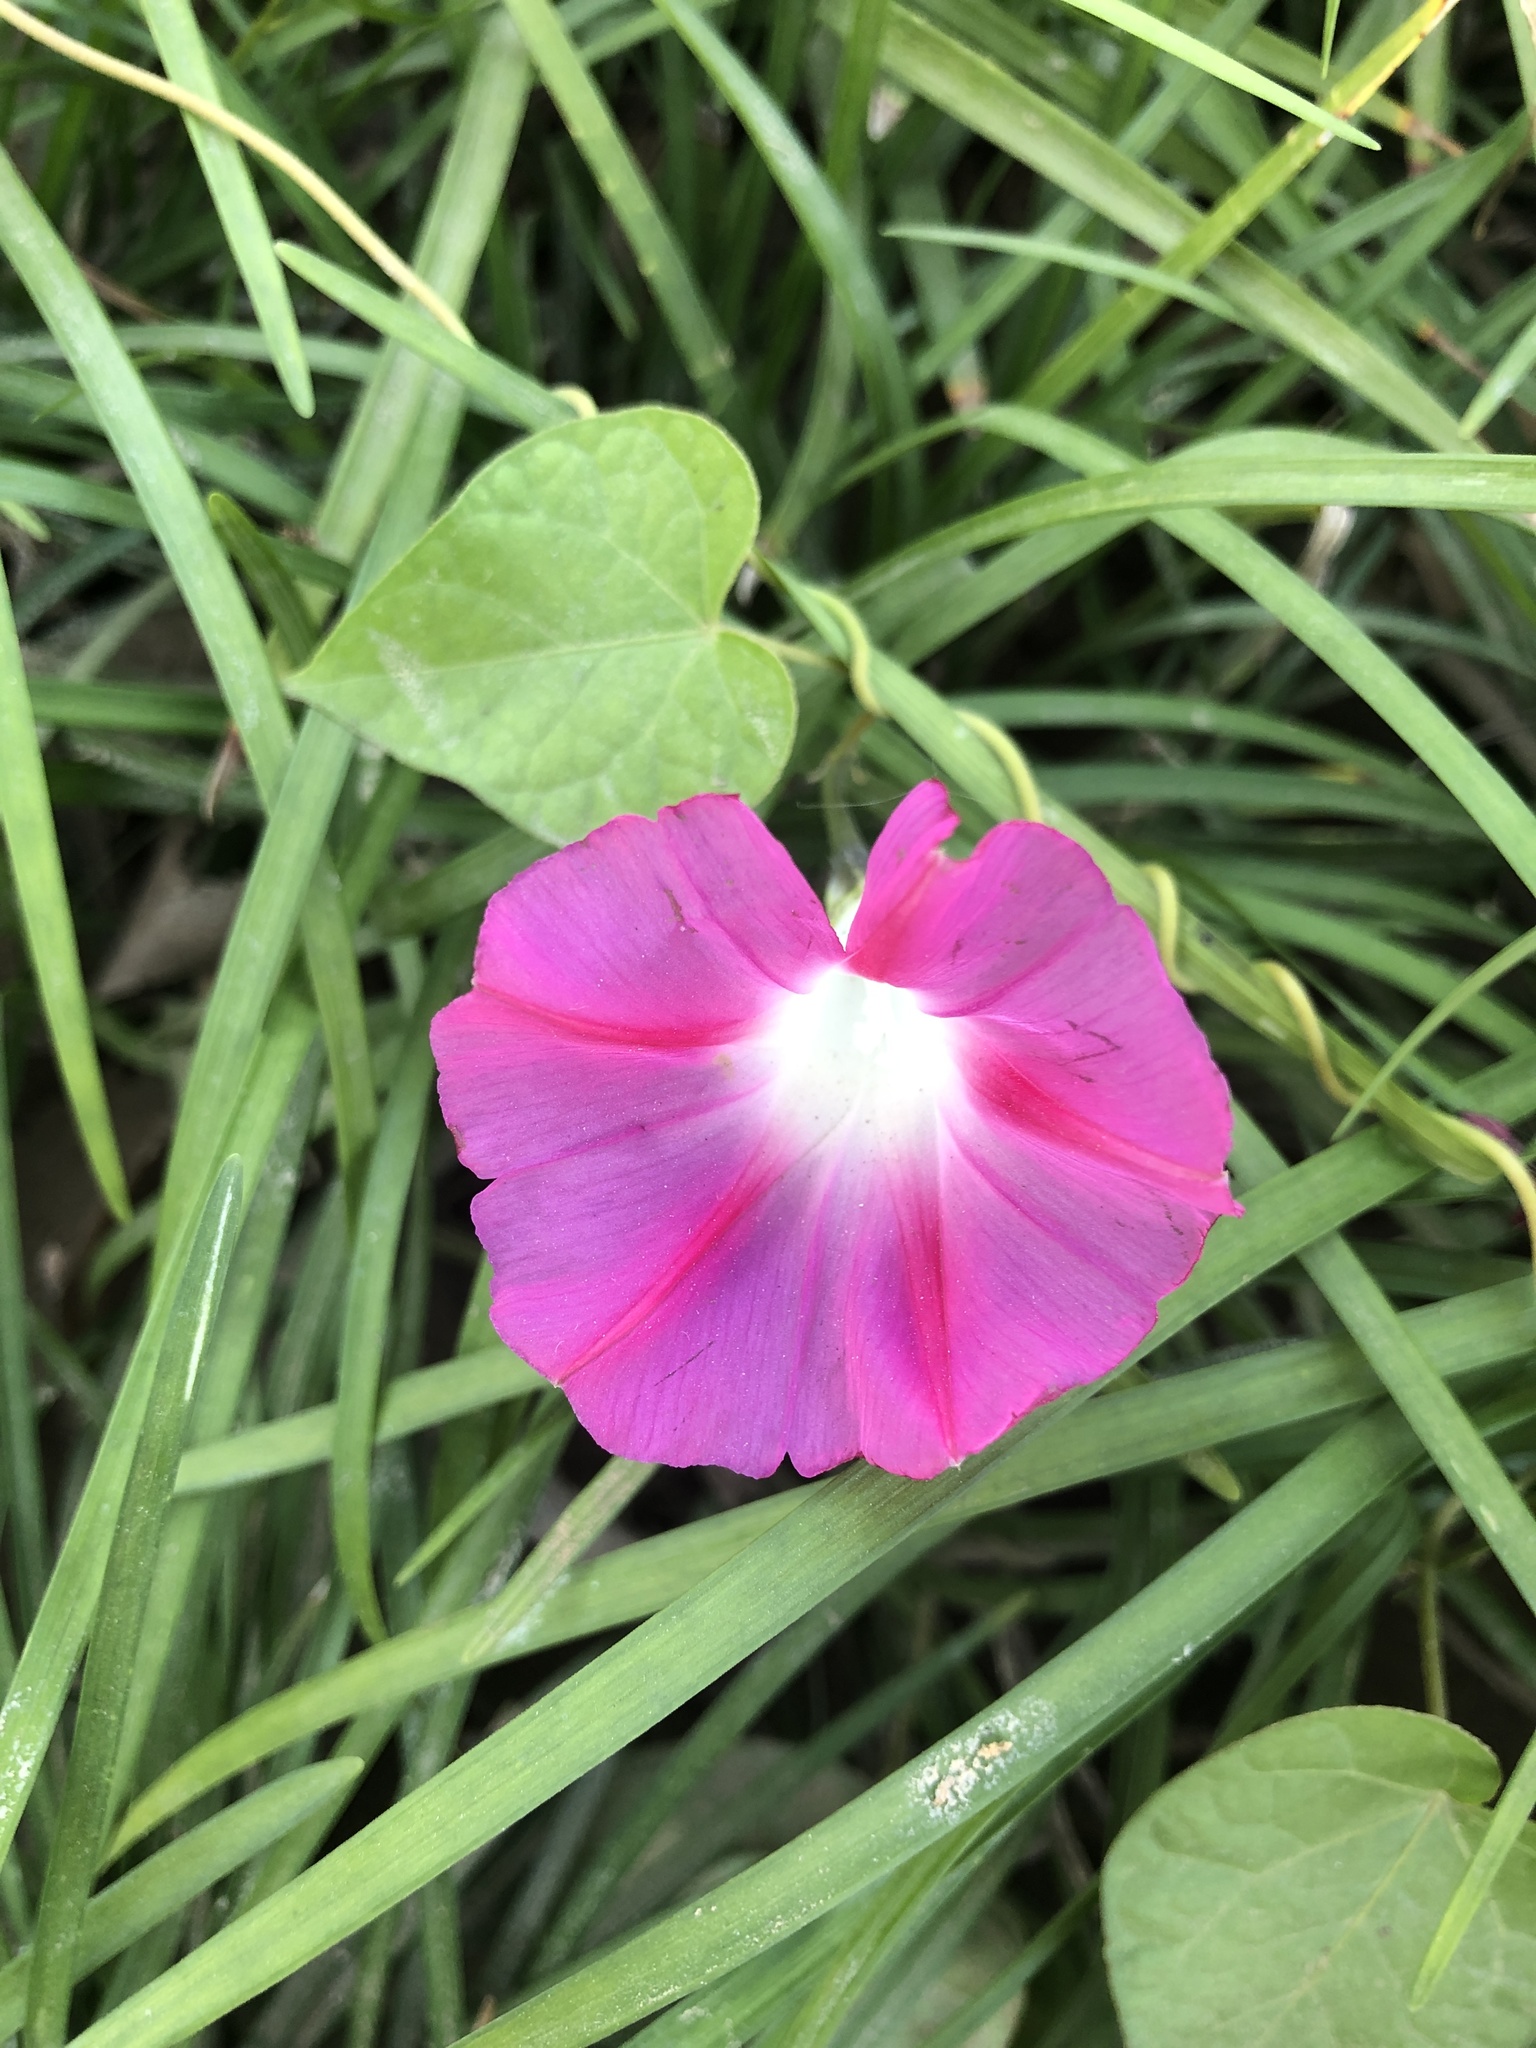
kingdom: Plantae
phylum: Tracheophyta
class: Magnoliopsida
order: Solanales
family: Convolvulaceae
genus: Ipomoea
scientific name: Ipomoea purpurea
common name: Common morning-glory
